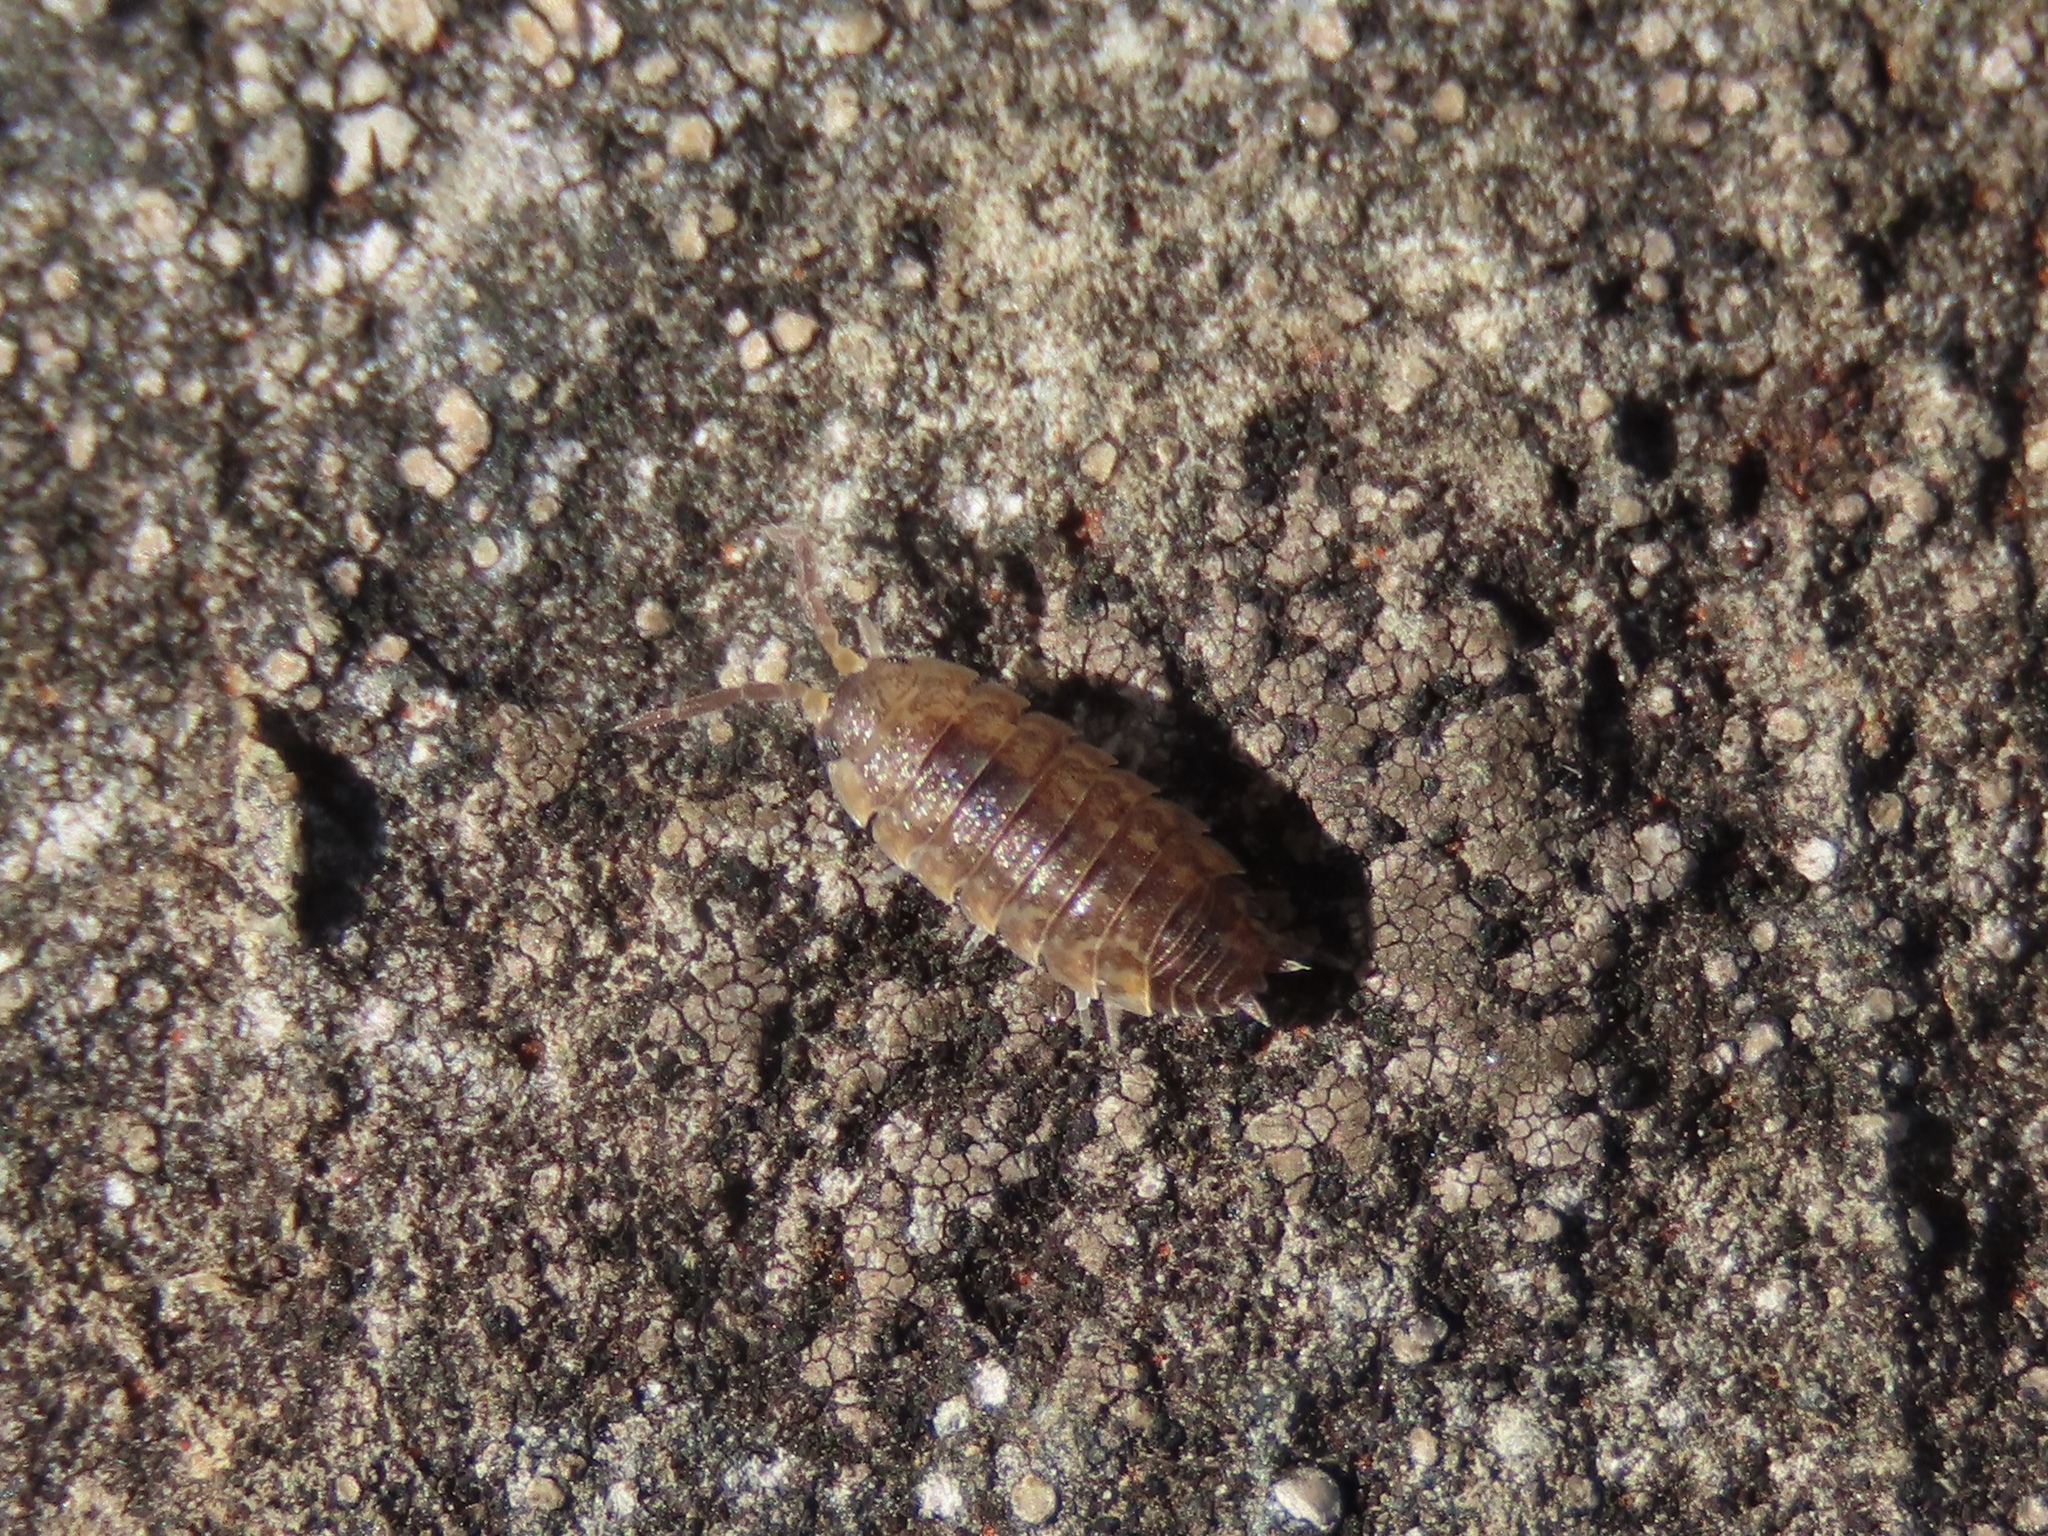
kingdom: Animalia
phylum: Arthropoda
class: Malacostraca
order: Isopoda
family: Porcellionidae
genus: Porcellio
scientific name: Porcellio scaber
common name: Common rough woodlouse
